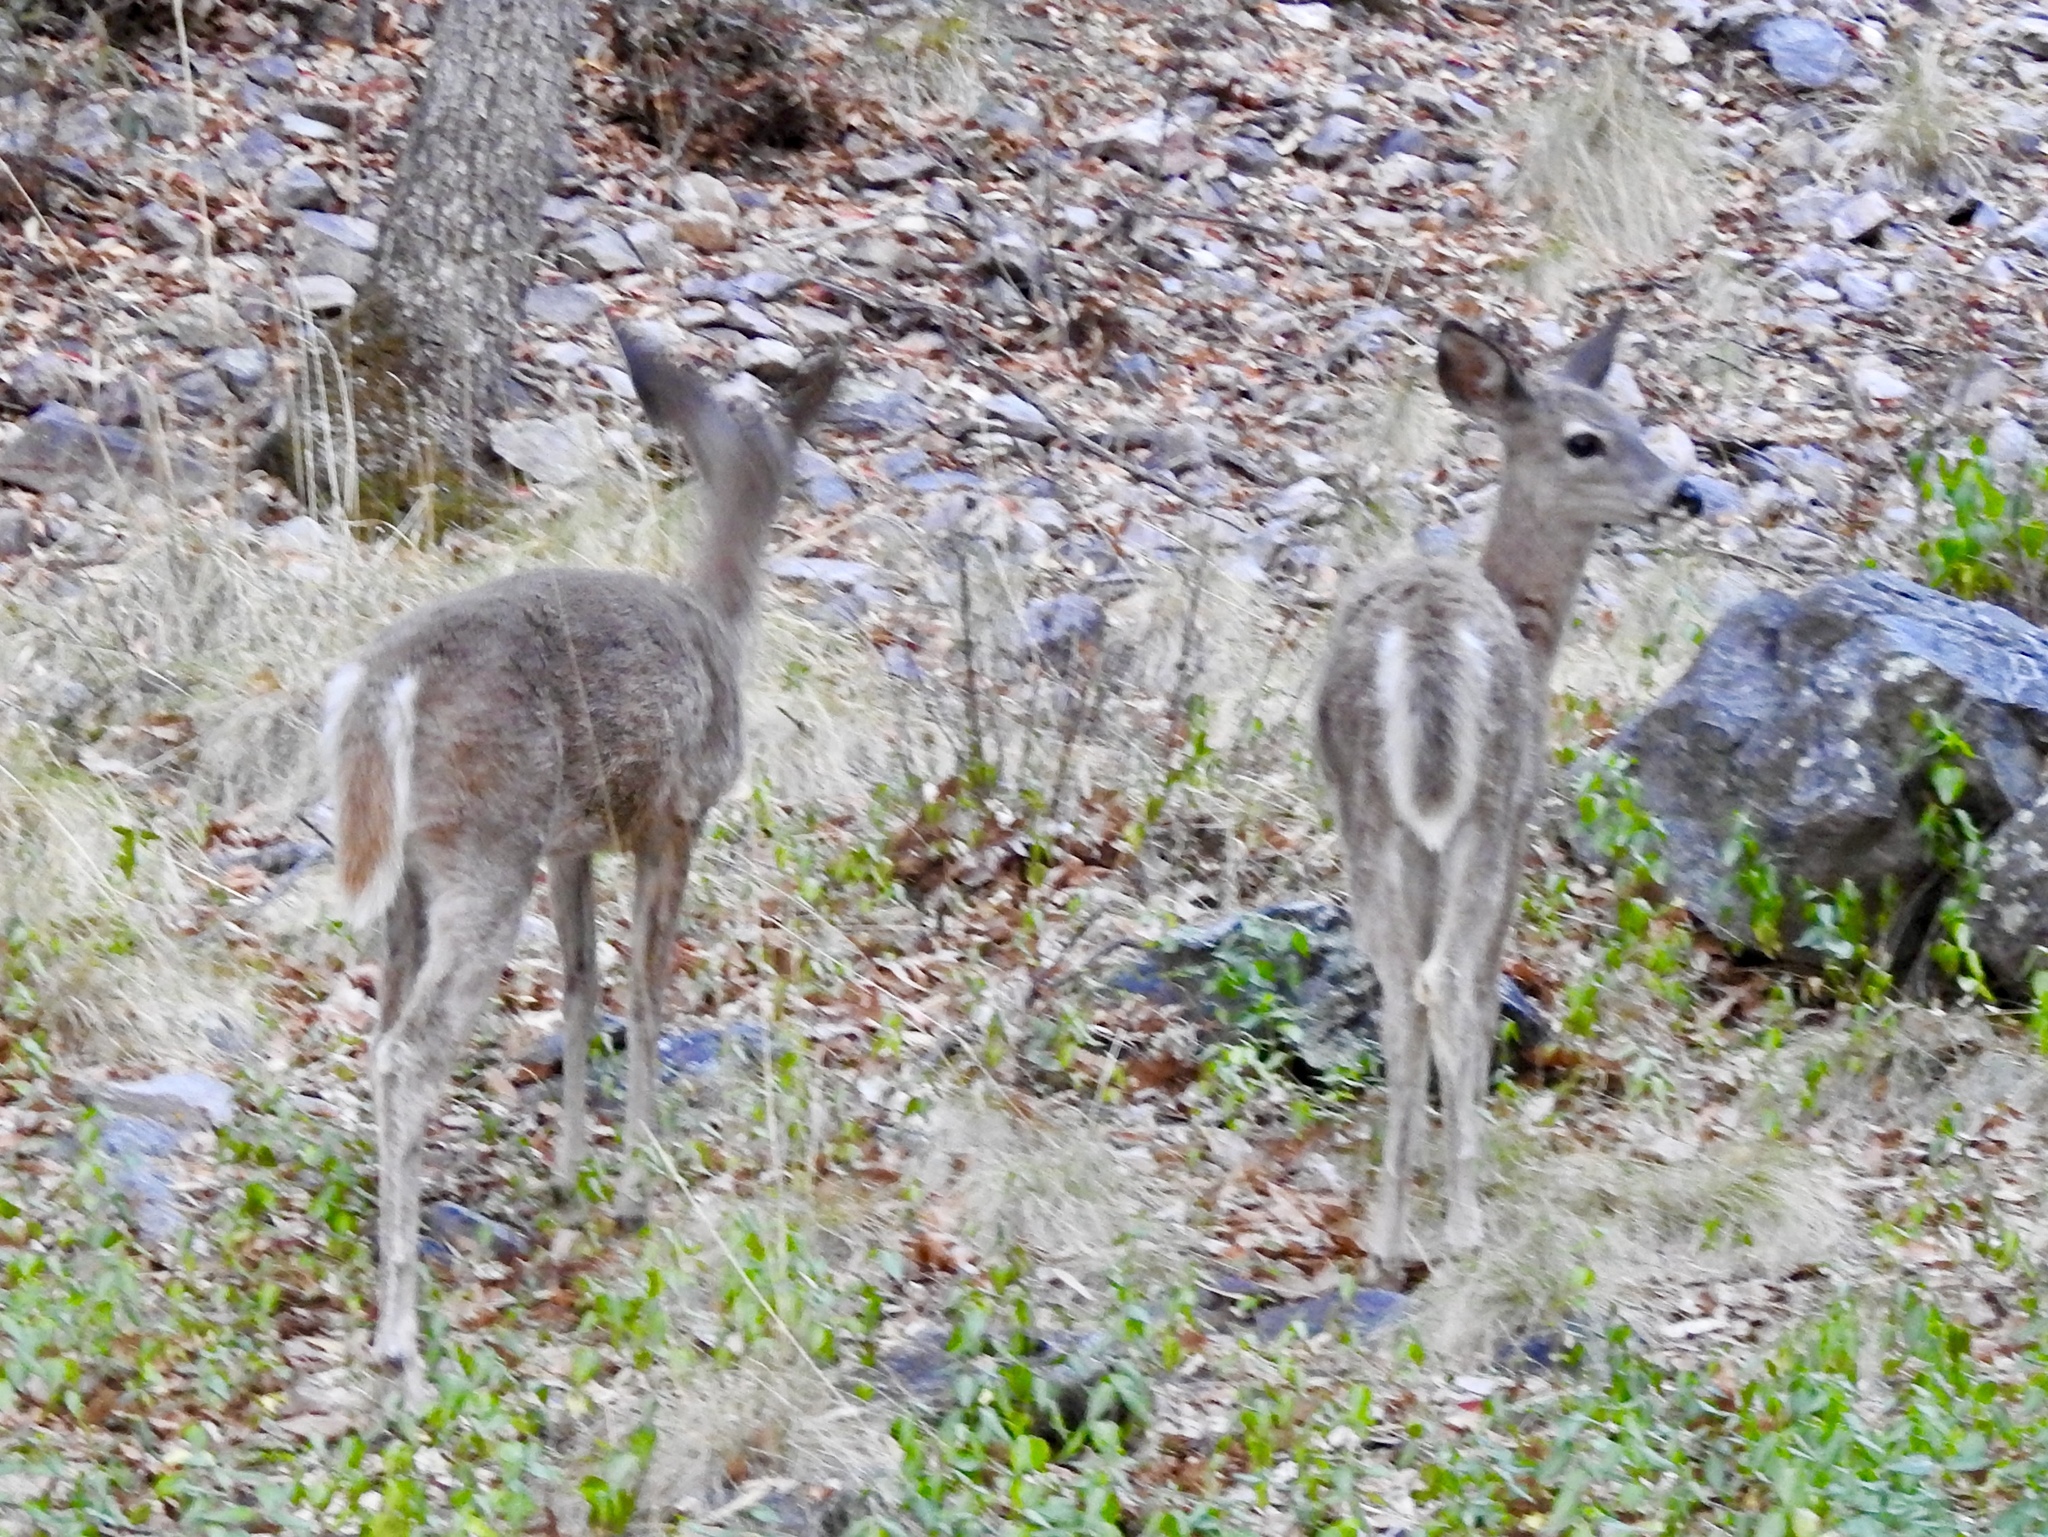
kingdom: Animalia
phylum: Chordata
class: Mammalia
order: Artiodactyla
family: Cervidae
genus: Odocoileus
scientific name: Odocoileus virginianus
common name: White-tailed deer
